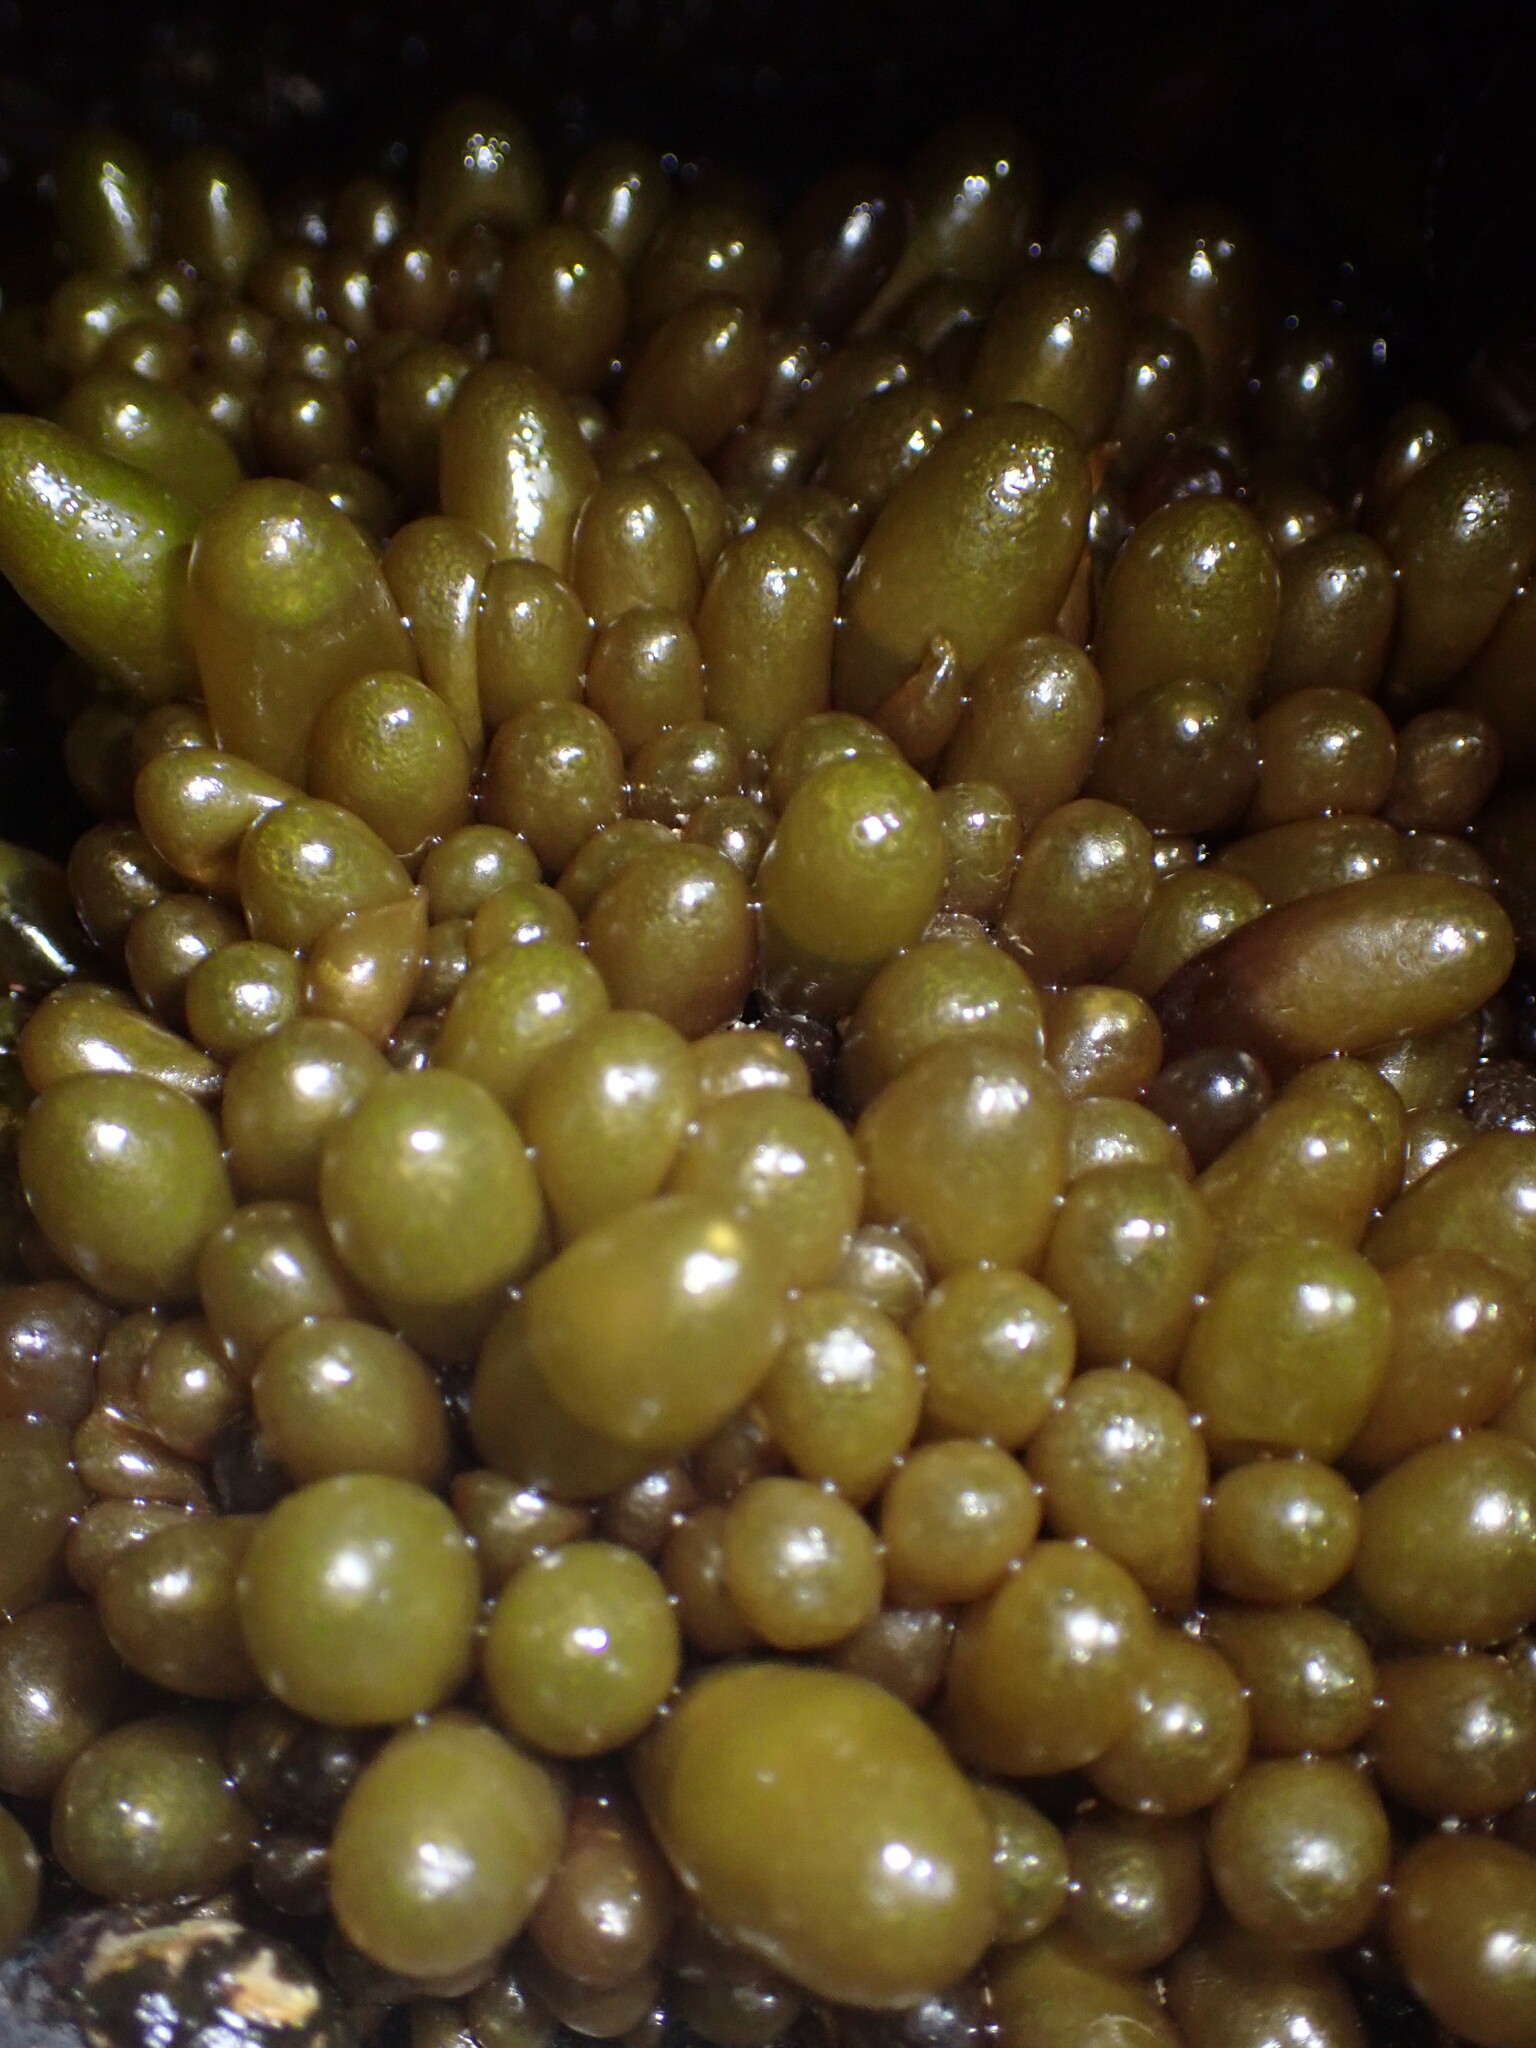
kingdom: Plantae
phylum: Rhodophyta
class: Florideophyceae
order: Palmariales
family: Palmariaceae
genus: Halosaccion
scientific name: Halosaccion glandiforme
